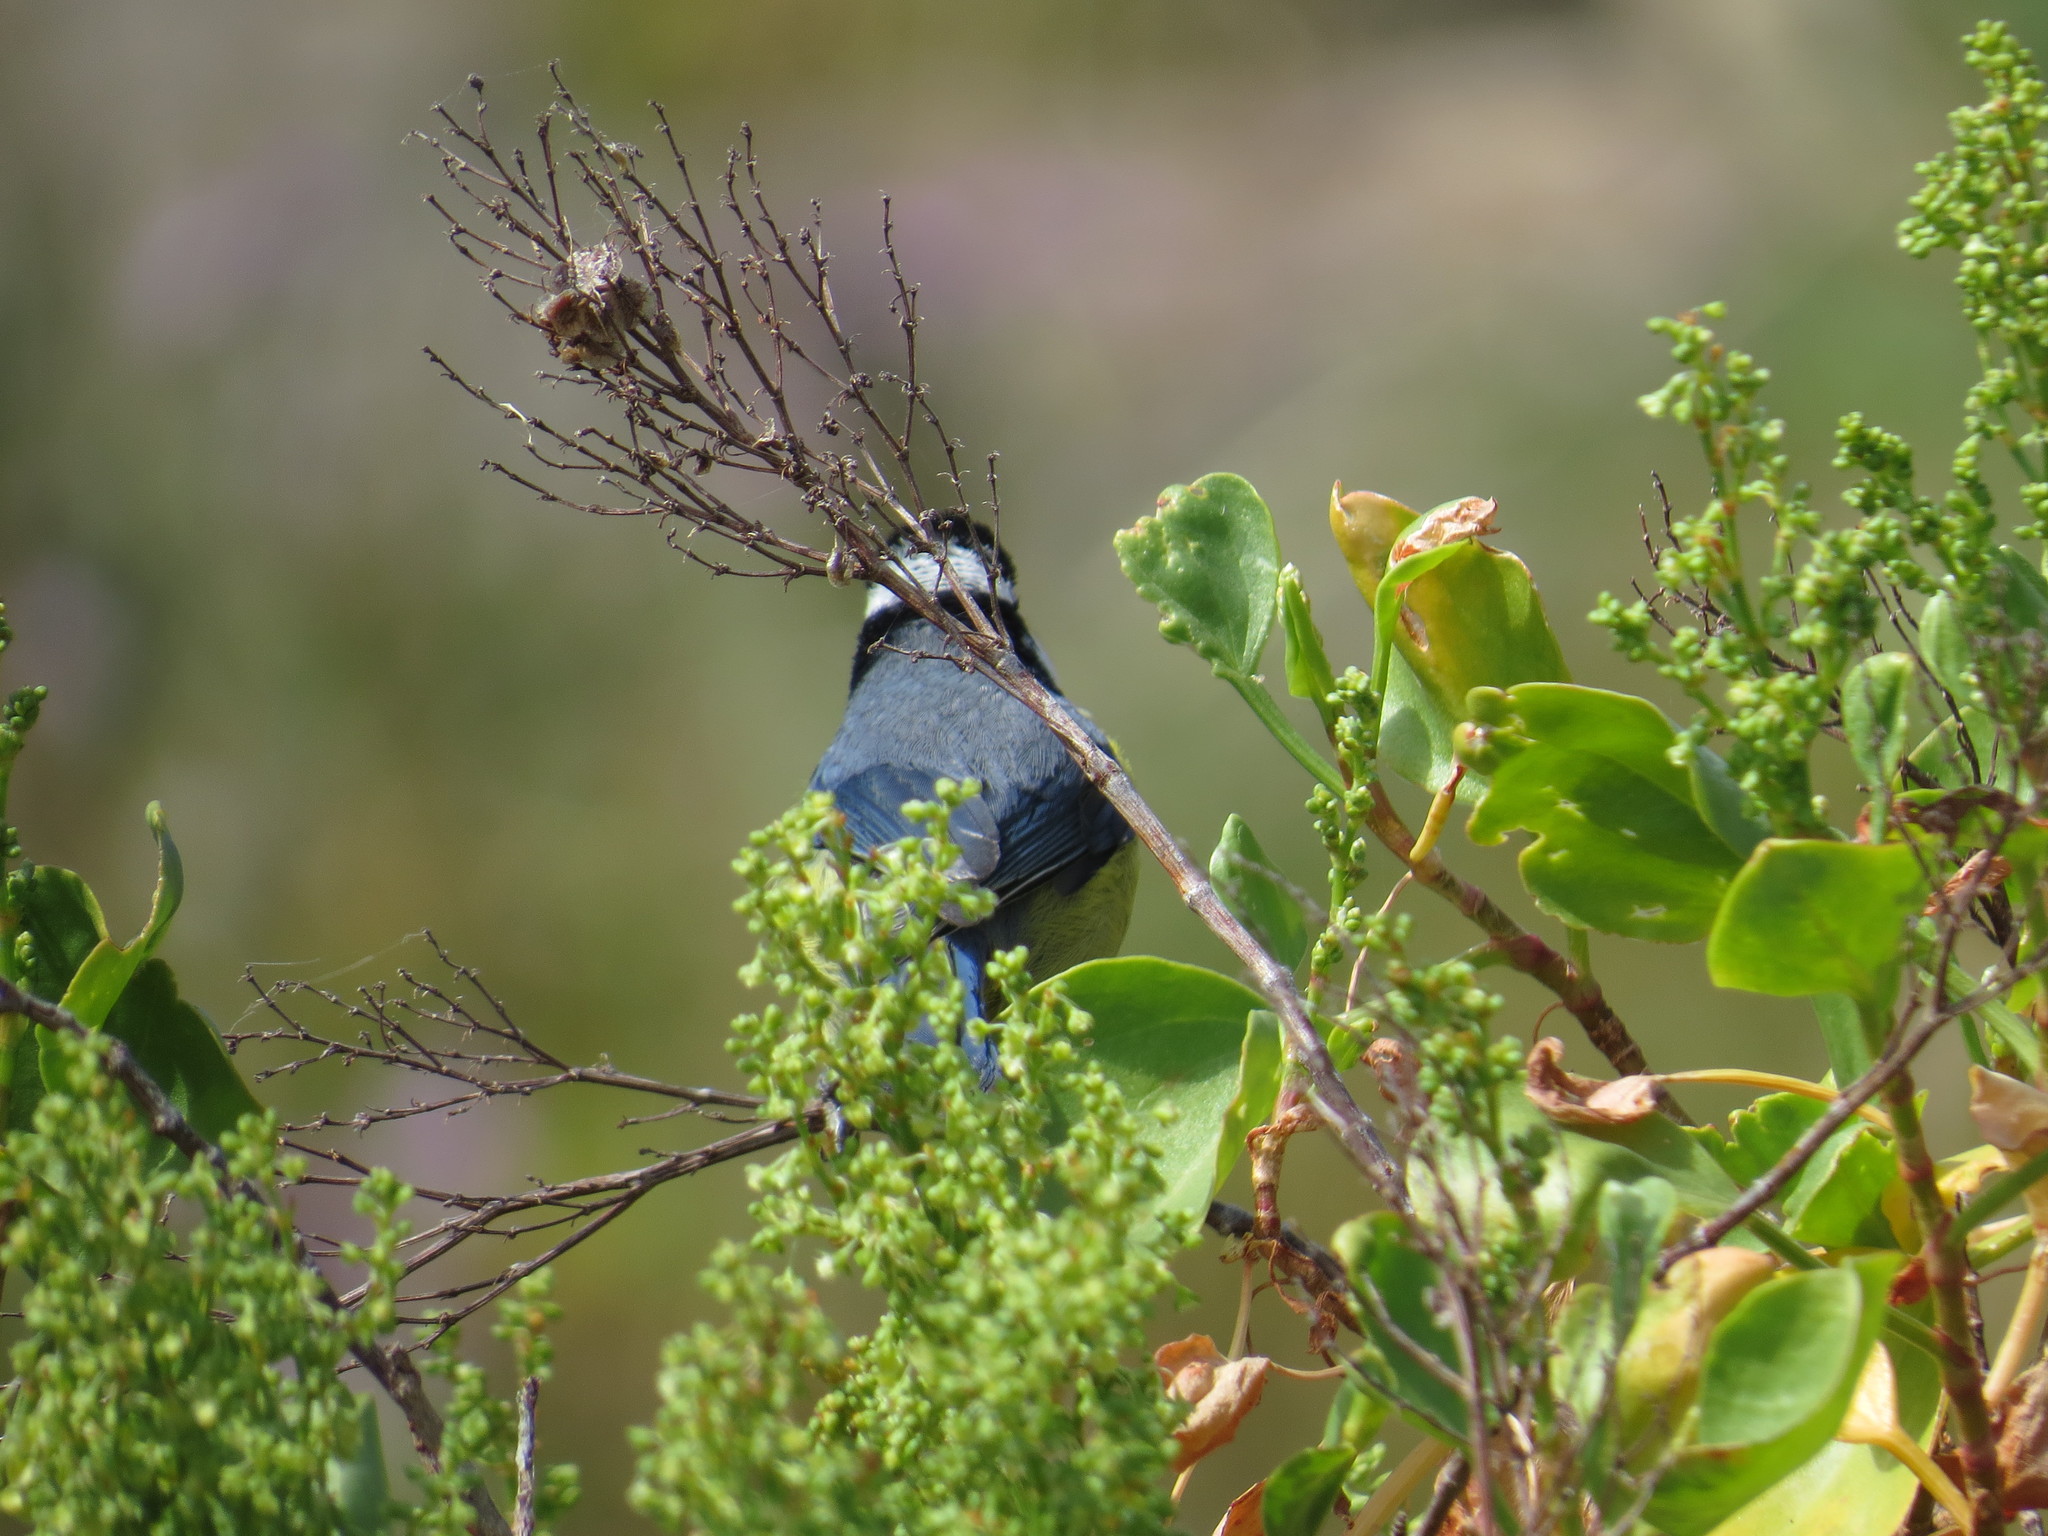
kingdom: Animalia
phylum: Chordata
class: Aves
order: Passeriformes
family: Paridae
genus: Cyanistes
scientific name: Cyanistes teneriffae
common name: African blue tit
